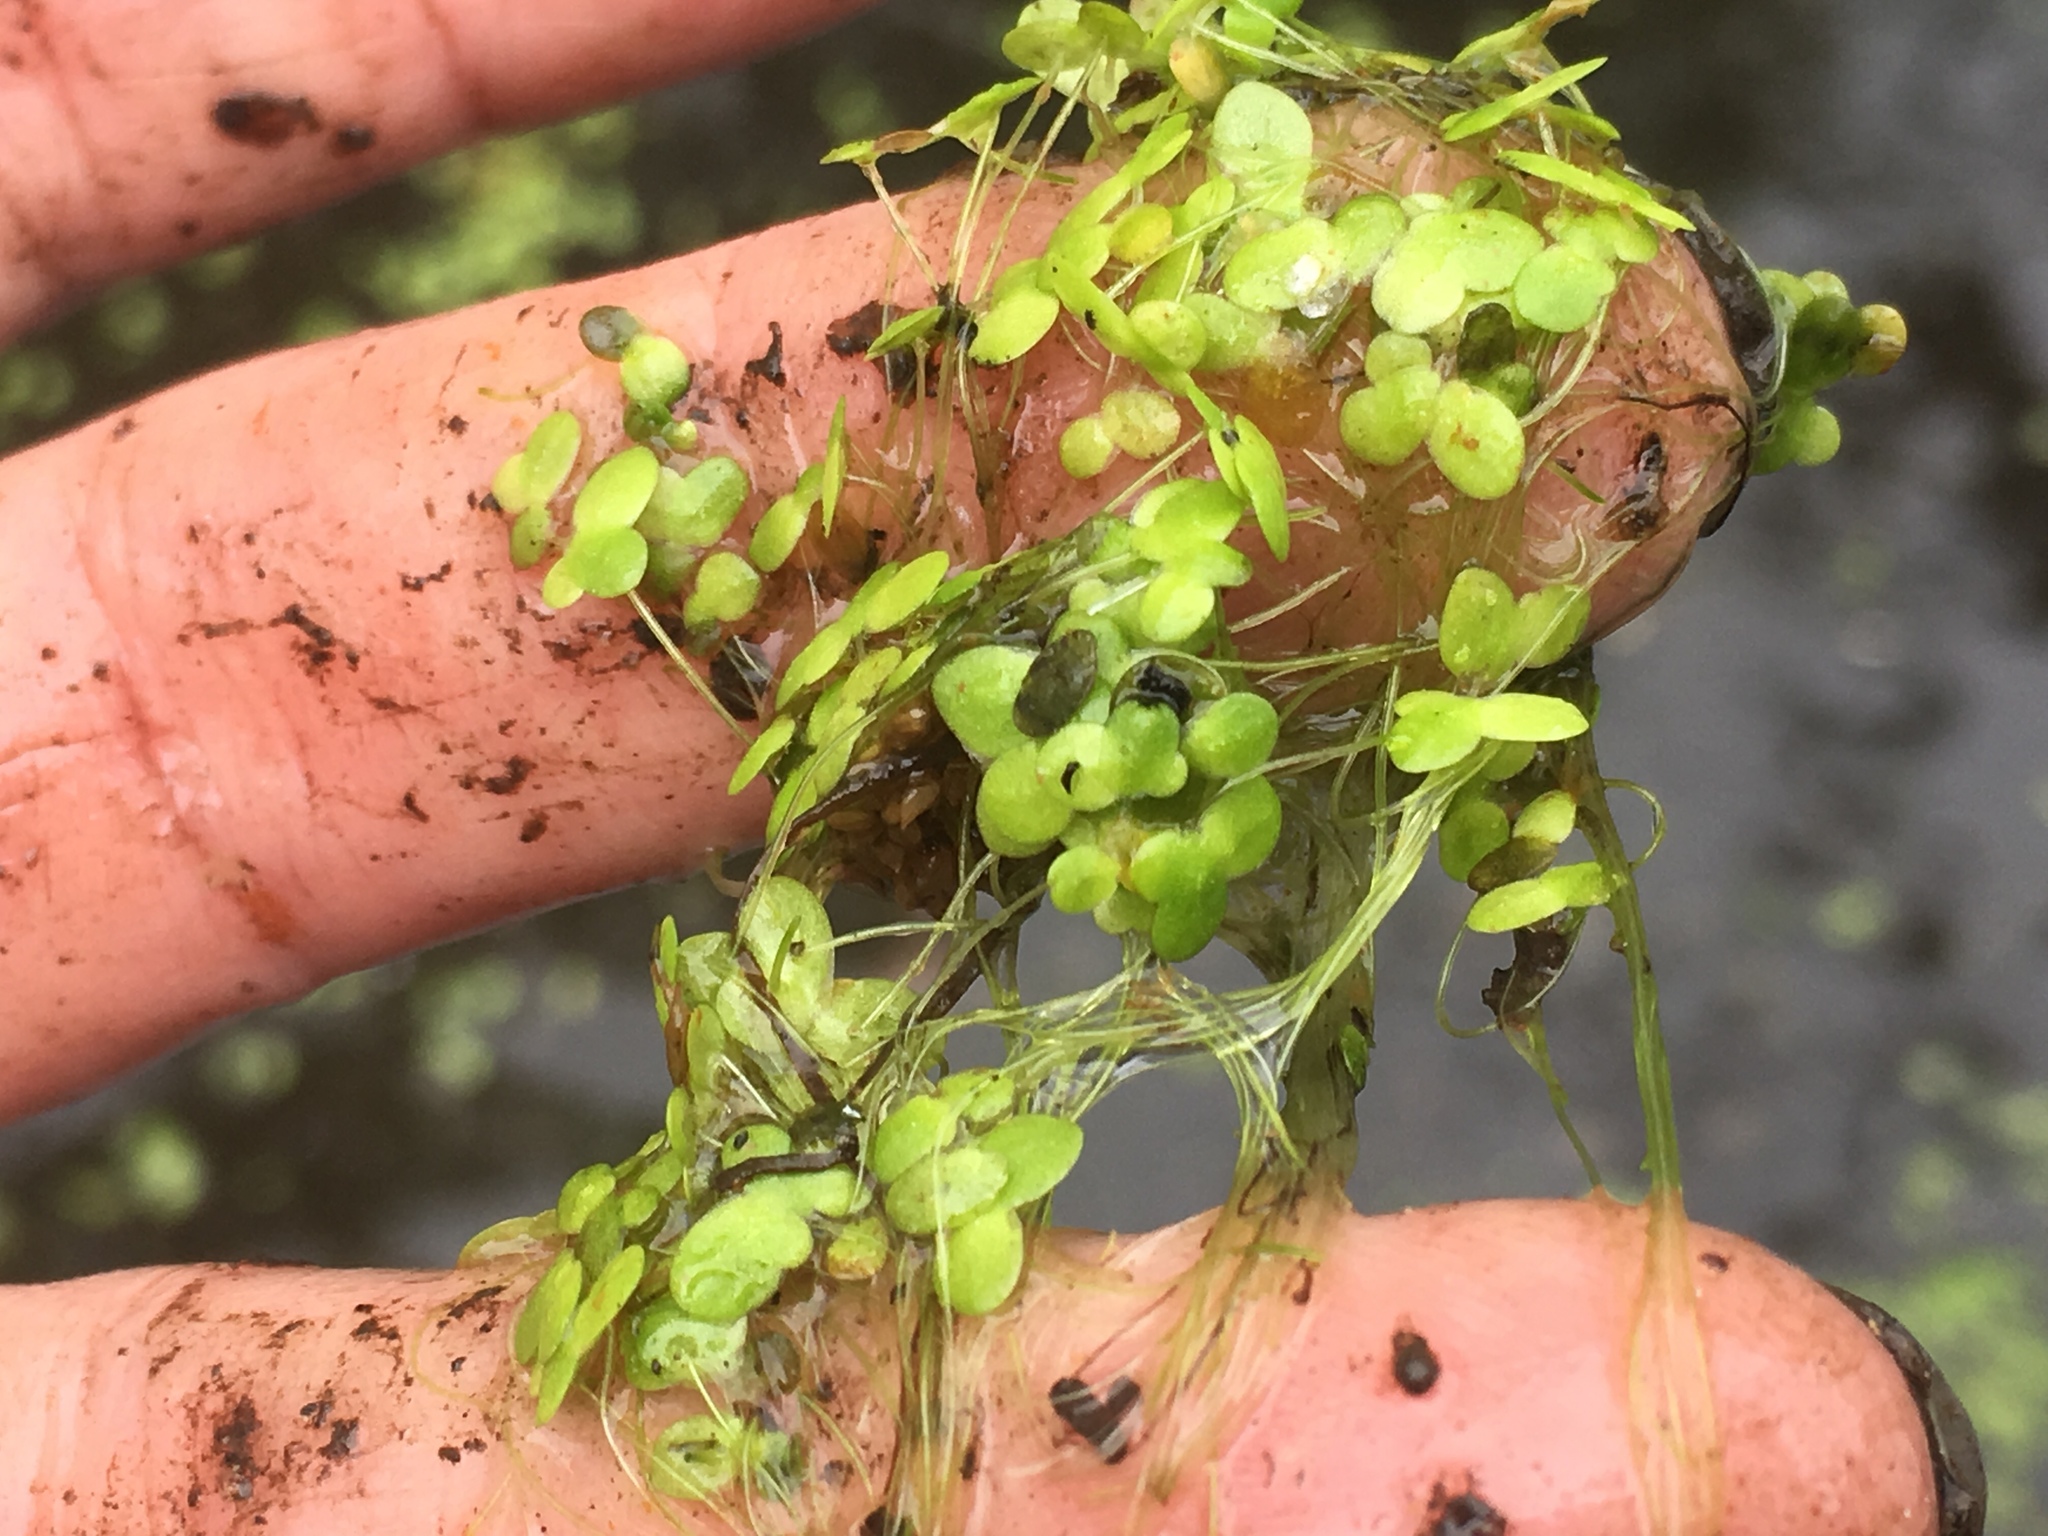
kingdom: Plantae
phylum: Tracheophyta
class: Liliopsida
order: Alismatales
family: Araceae
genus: Lemna
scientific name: Lemna minor
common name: Common duckweed
